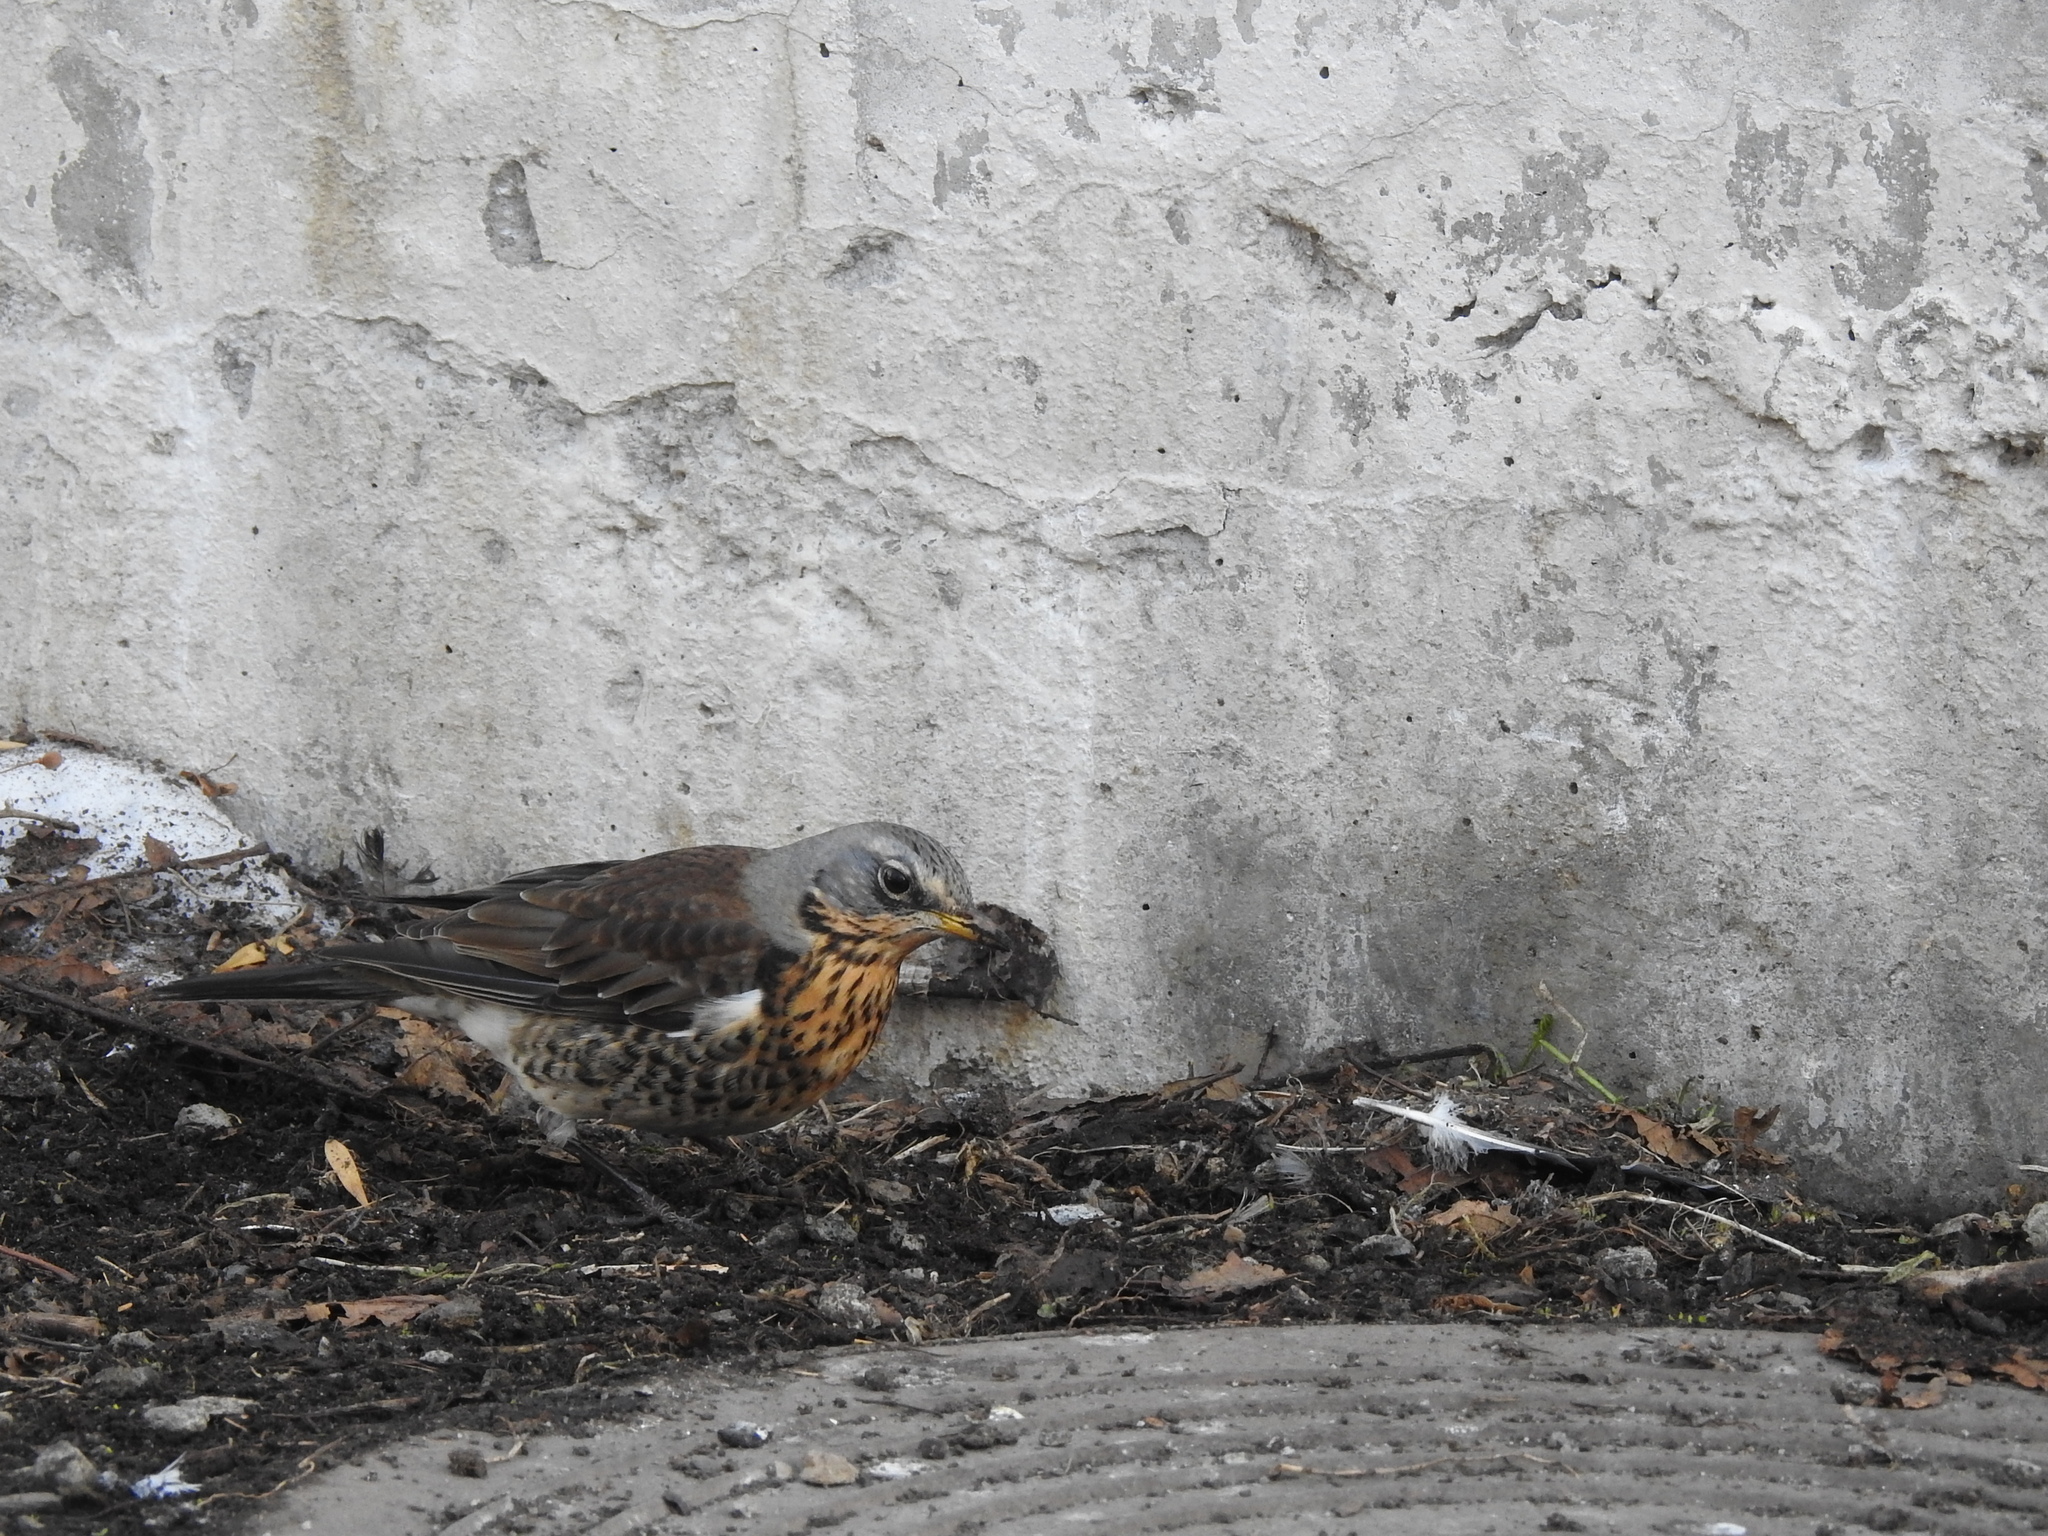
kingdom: Animalia
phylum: Chordata
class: Aves
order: Passeriformes
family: Turdidae
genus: Turdus
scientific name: Turdus pilaris
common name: Fieldfare
